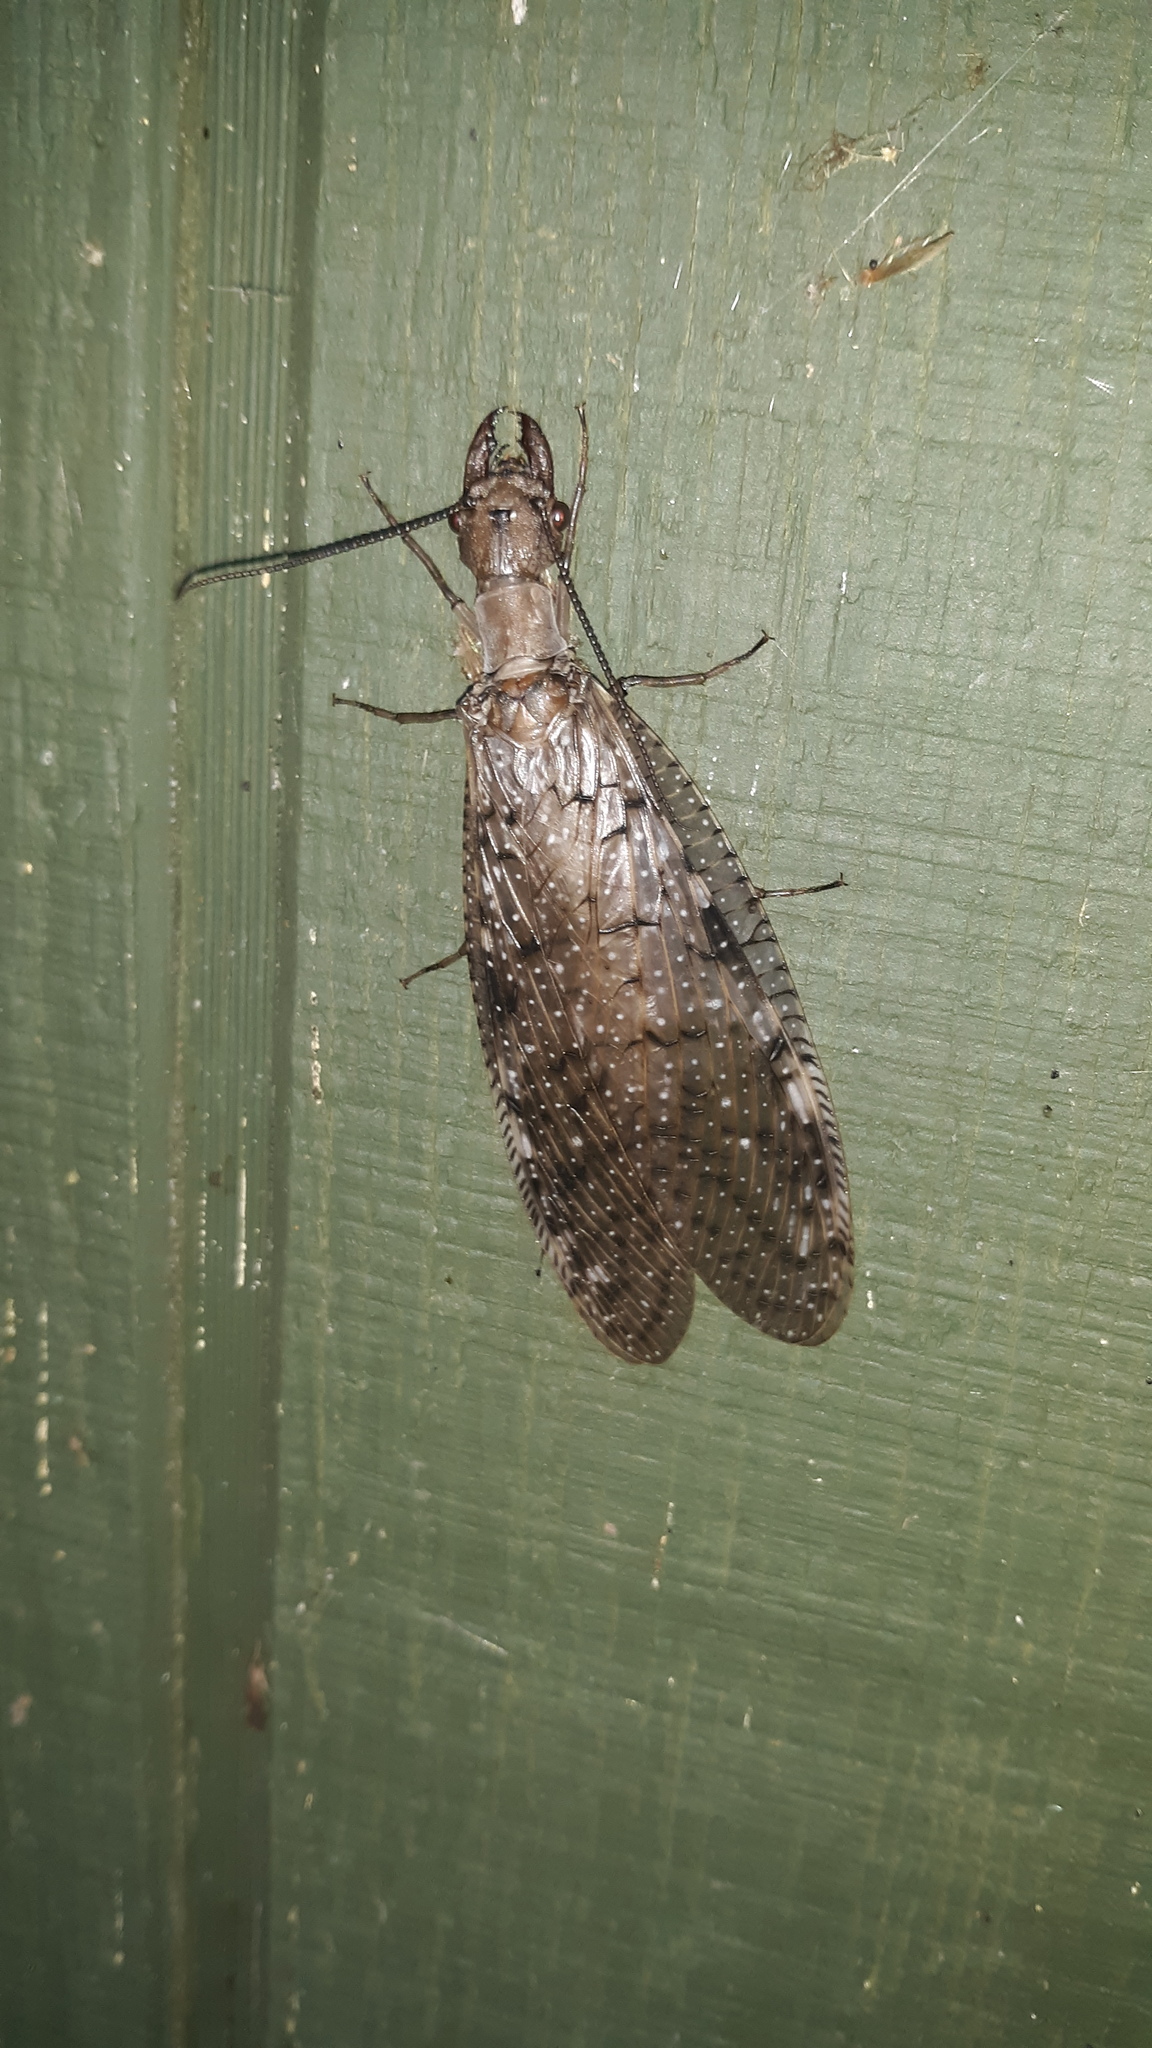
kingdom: Animalia
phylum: Arthropoda
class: Insecta
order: Megaloptera
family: Corydalidae
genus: Corydalus
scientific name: Corydalus cornutus
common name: Dobsonfly
